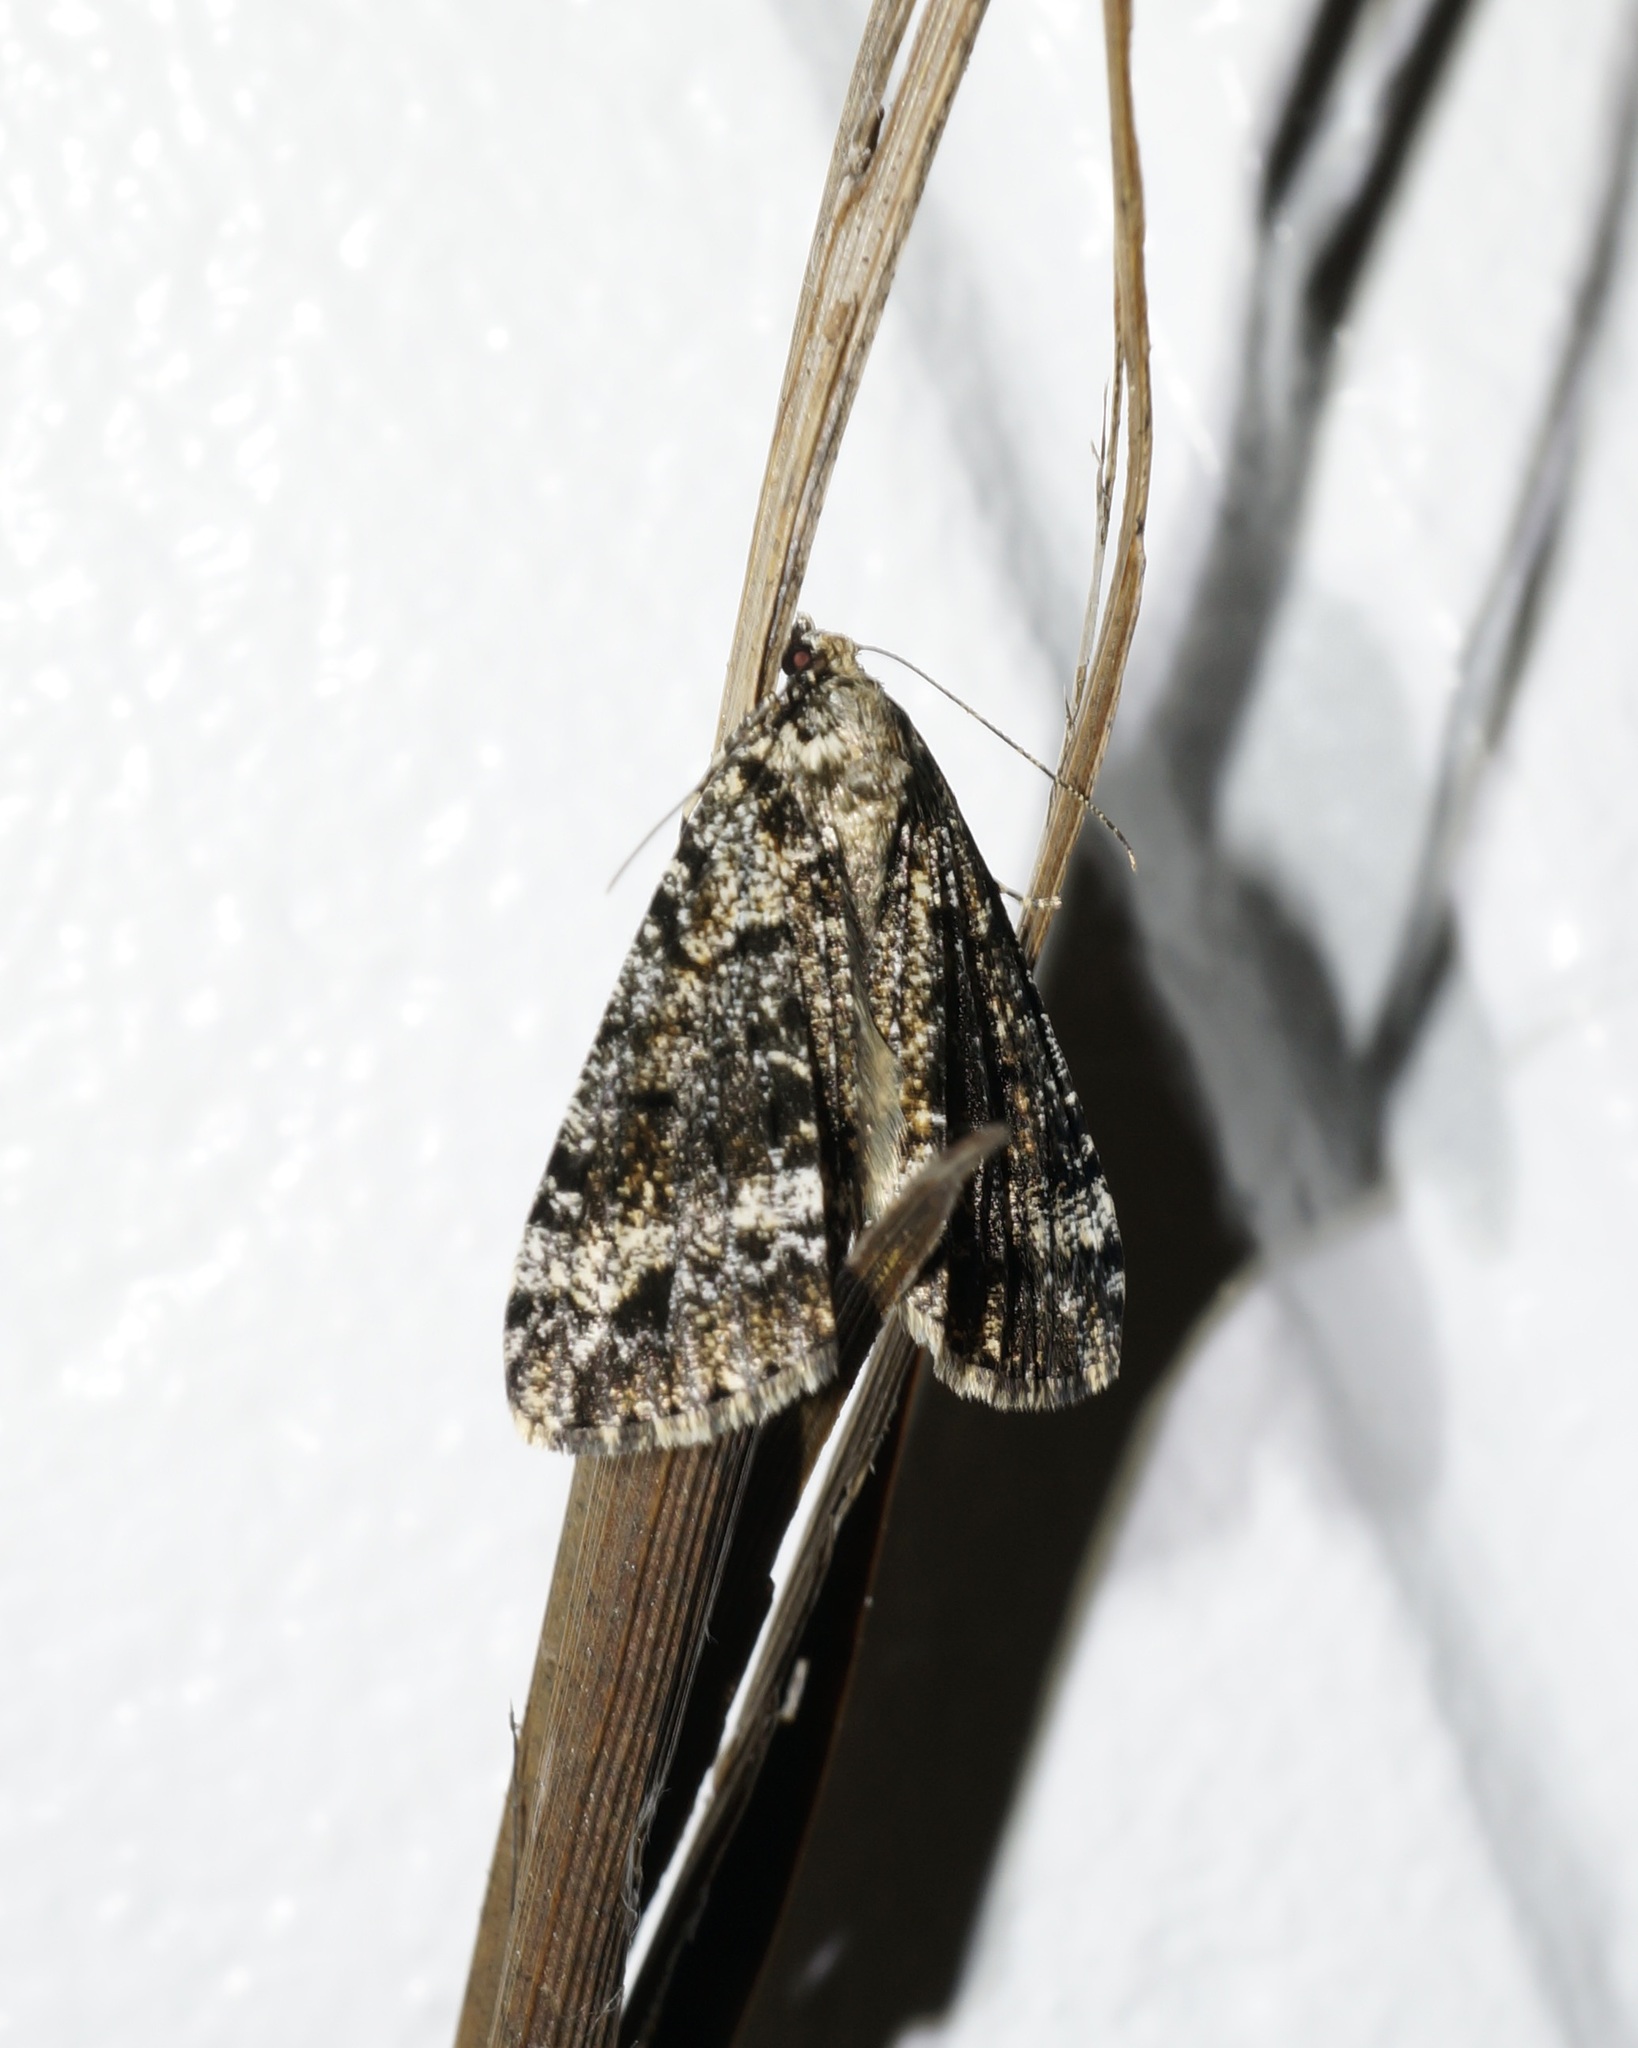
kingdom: Animalia
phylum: Arthropoda
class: Insecta
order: Lepidoptera
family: Geometridae
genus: Pseudocoremia
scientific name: Pseudocoremia leucelaea
